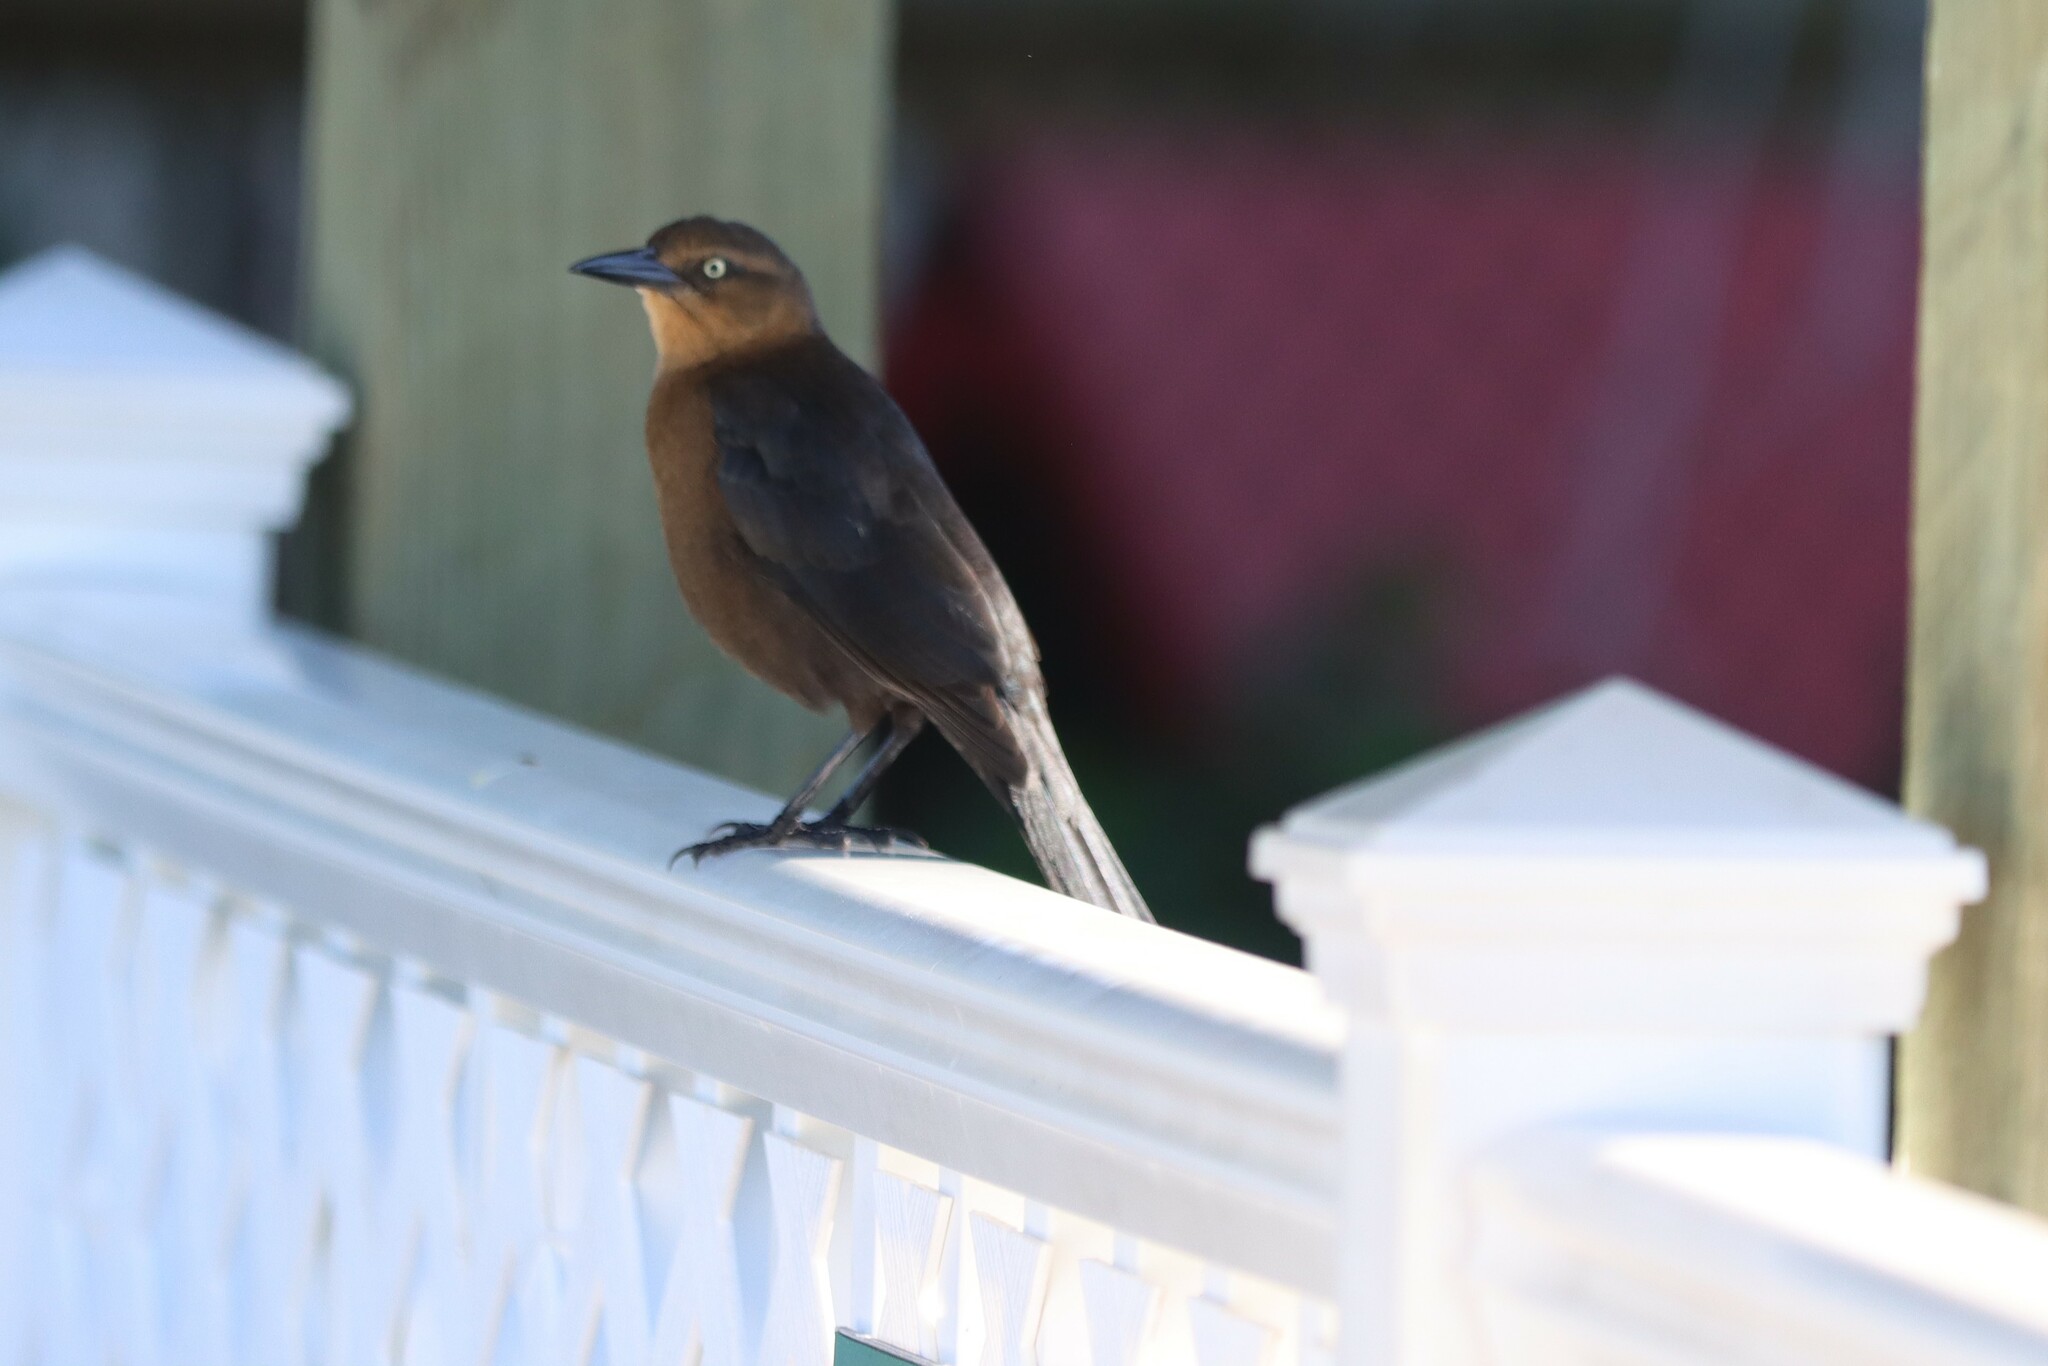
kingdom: Animalia
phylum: Chordata
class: Aves
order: Passeriformes
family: Icteridae
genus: Quiscalus
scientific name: Quiscalus mexicanus
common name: Great-tailed grackle
